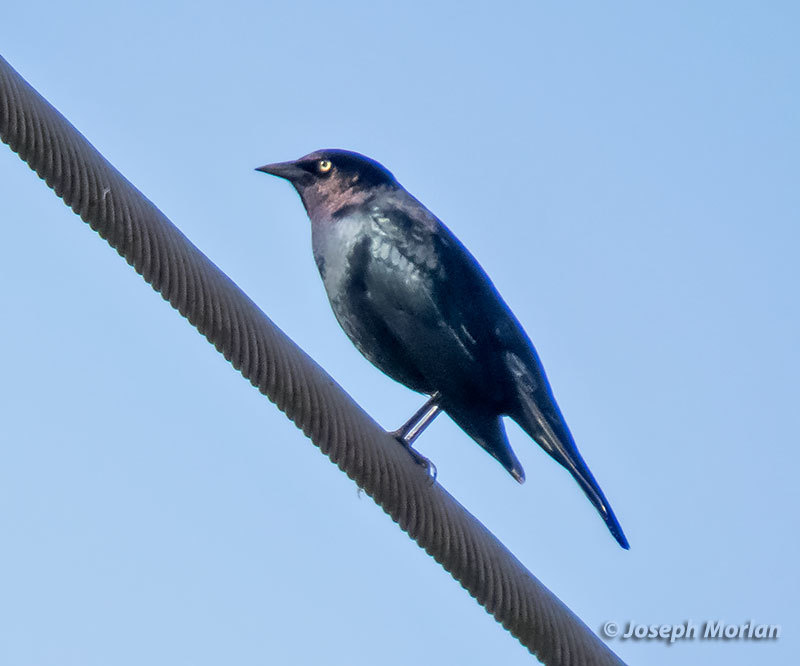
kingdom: Animalia
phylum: Chordata
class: Aves
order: Passeriformes
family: Icteridae
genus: Euphagus
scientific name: Euphagus cyanocephalus
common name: Brewer's blackbird
